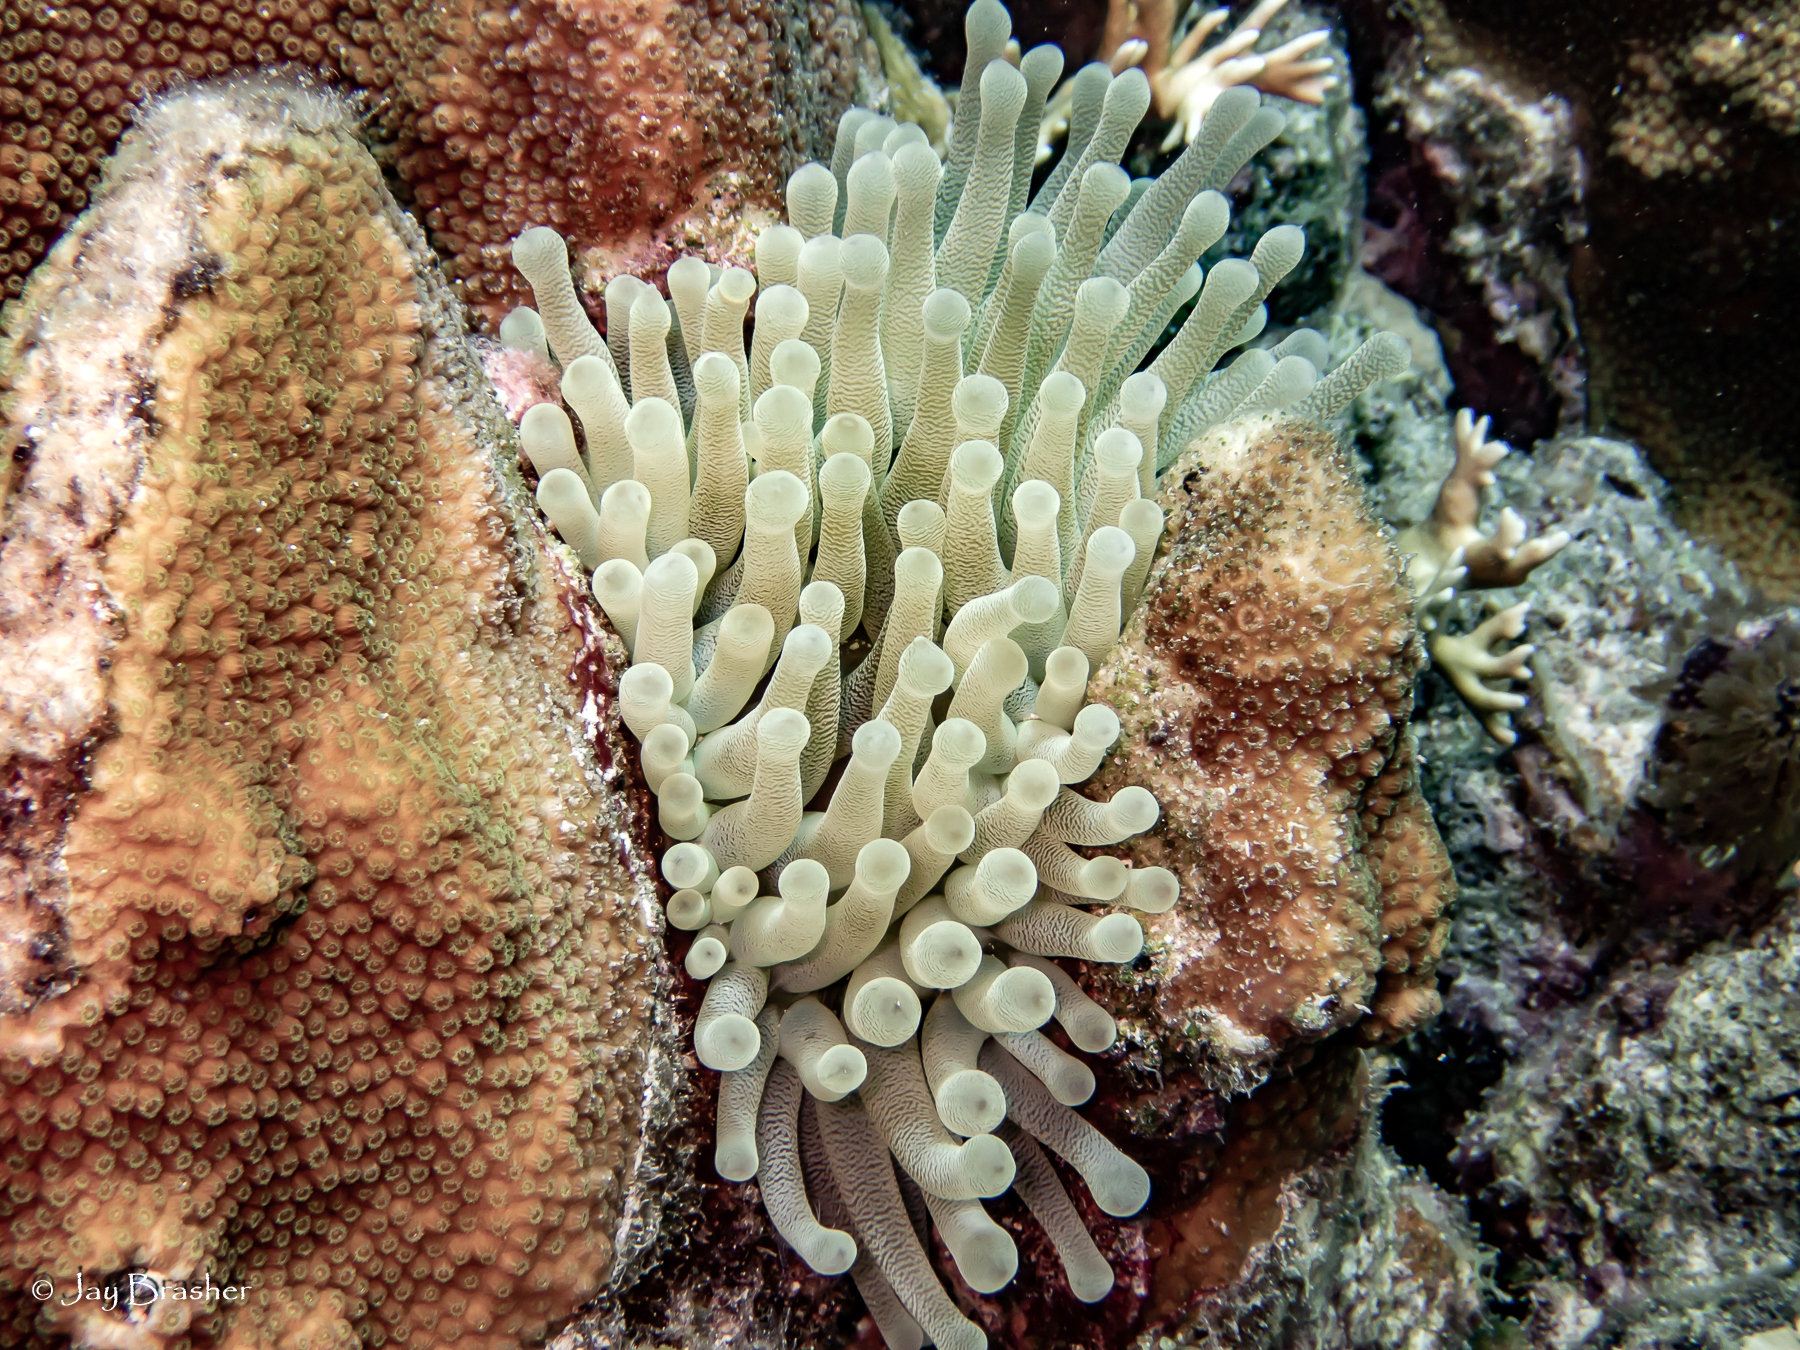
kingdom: Animalia
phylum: Cnidaria
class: Anthozoa
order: Actiniaria
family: Actiniidae
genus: Condylactis
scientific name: Condylactis gigantea
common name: Giant caribbean anemone
